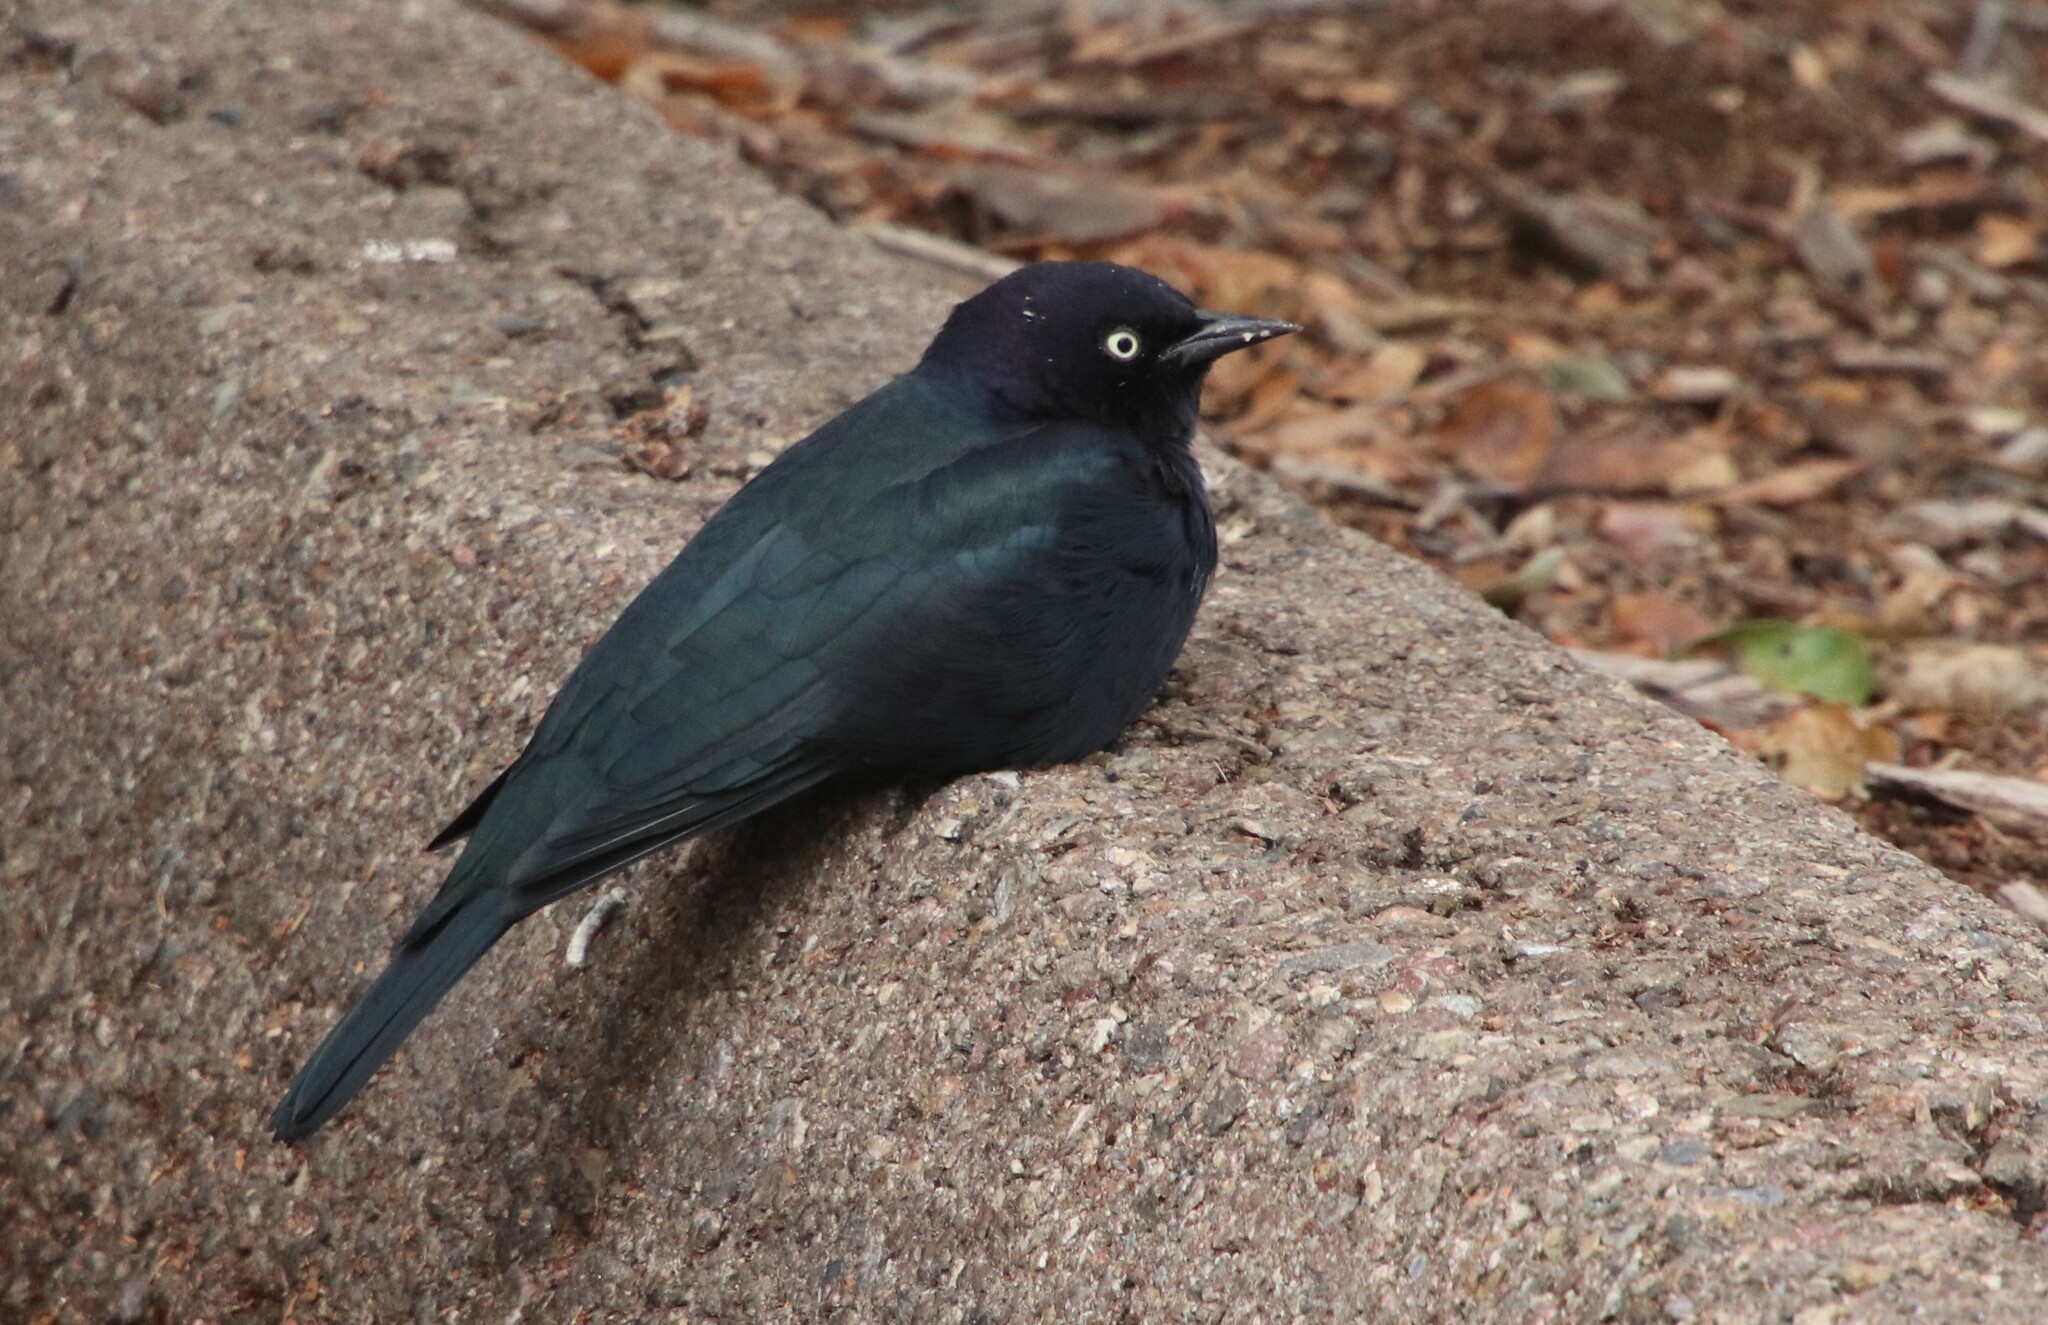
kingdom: Animalia
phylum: Chordata
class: Aves
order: Passeriformes
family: Icteridae
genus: Euphagus
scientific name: Euphagus cyanocephalus
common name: Brewer's blackbird
